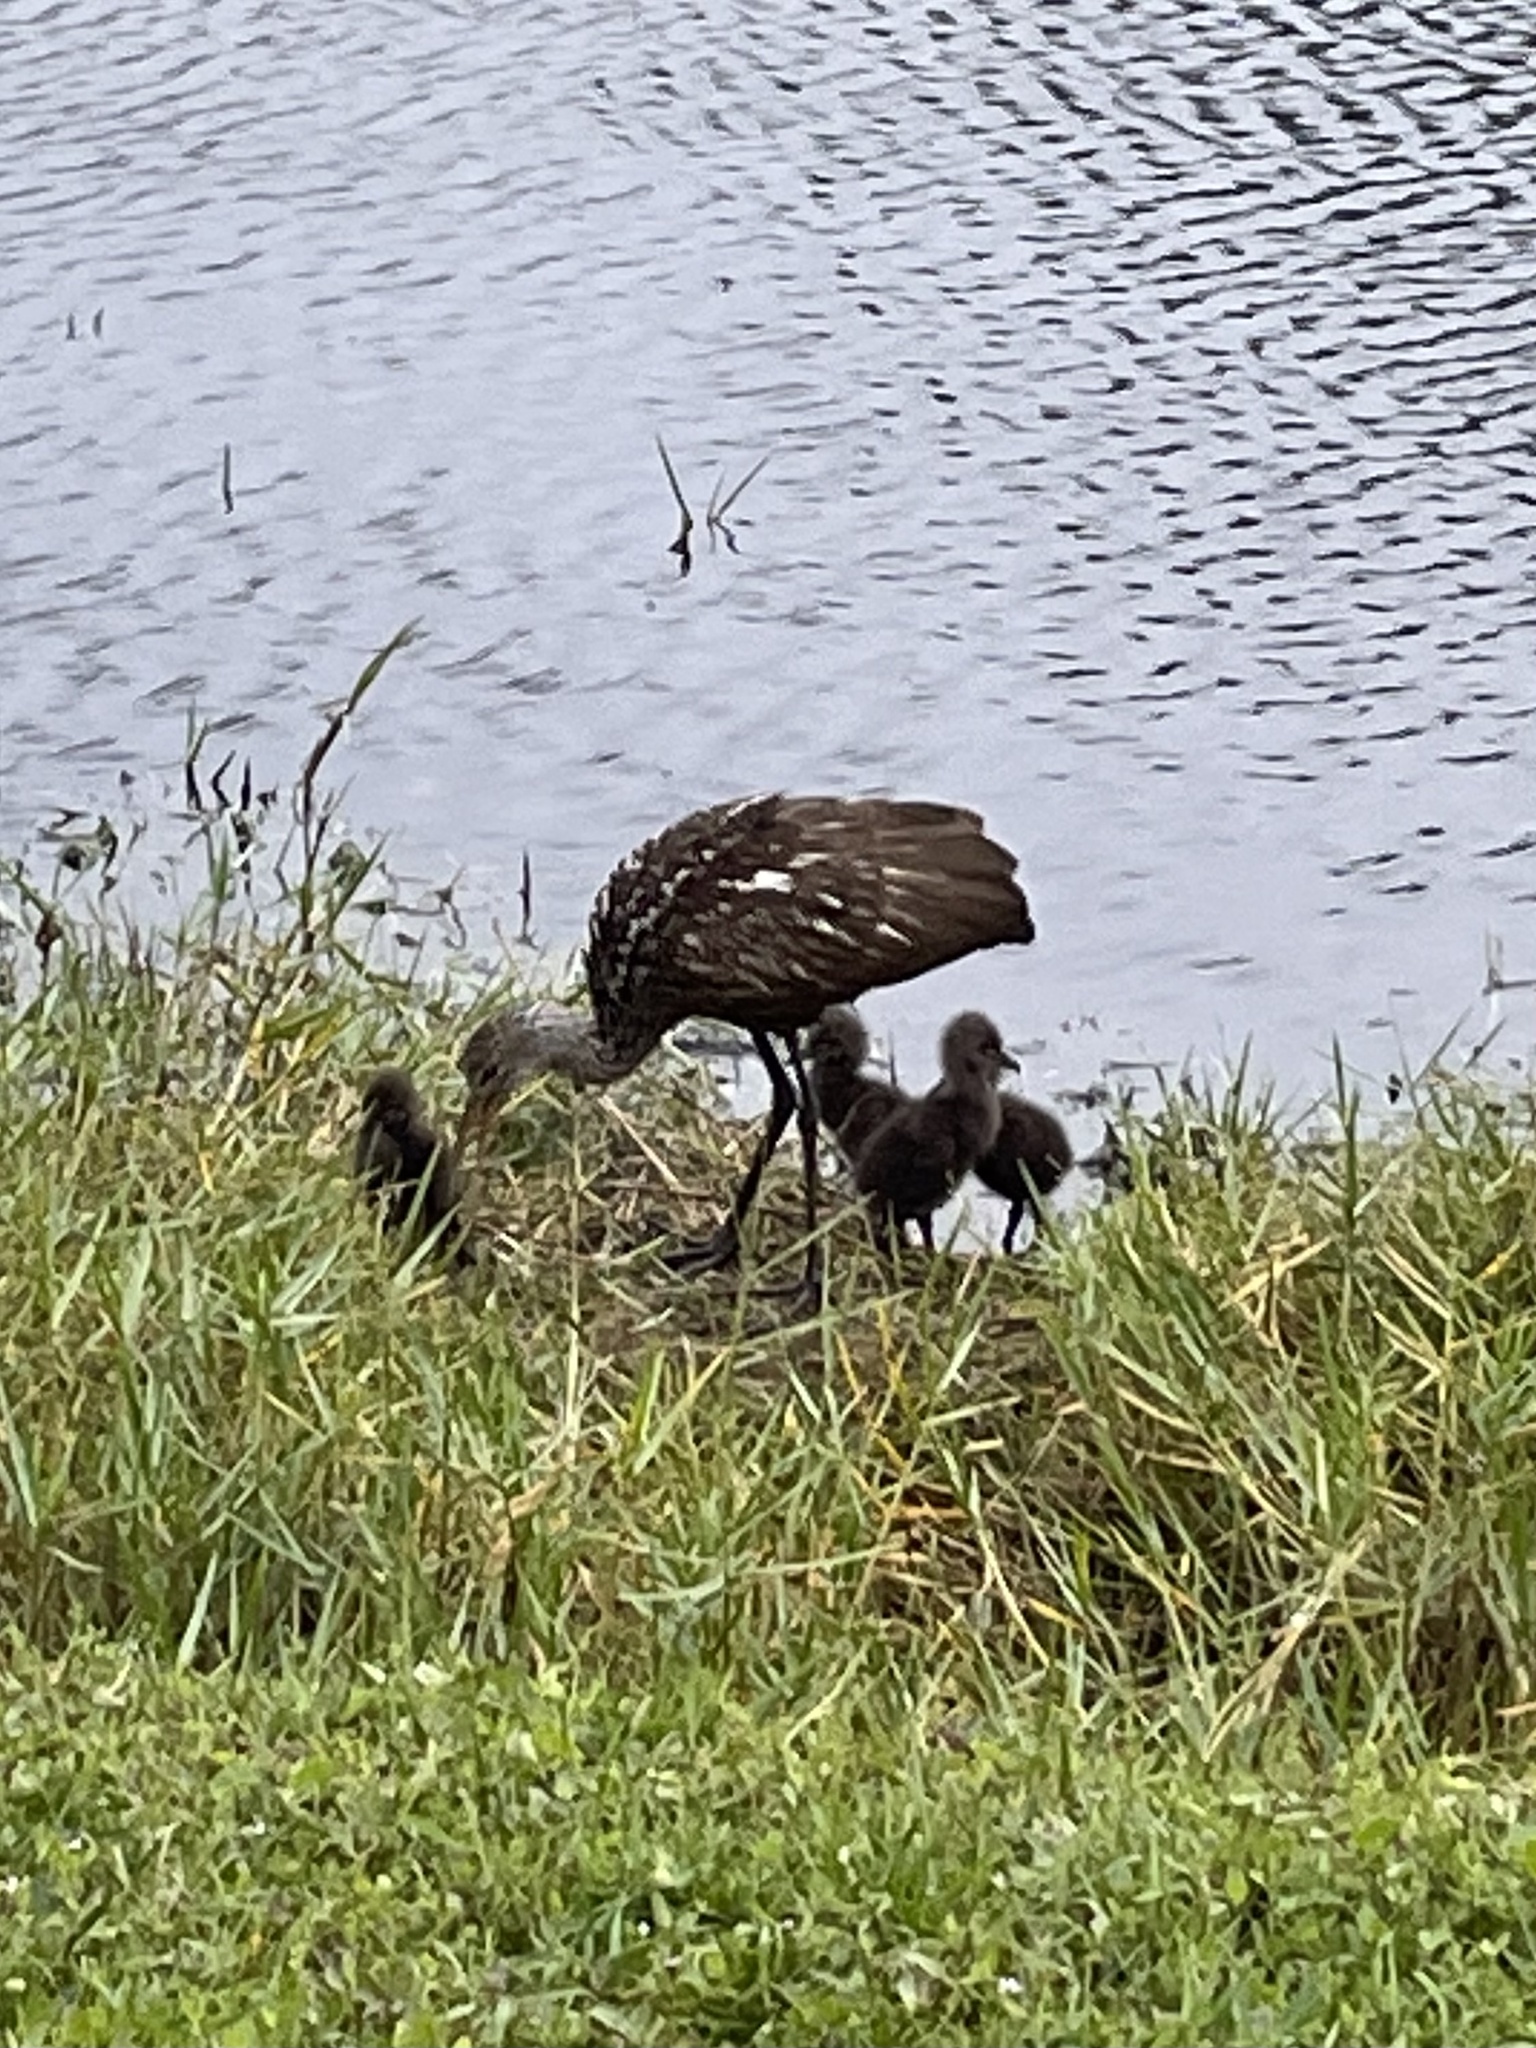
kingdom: Animalia
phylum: Chordata
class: Aves
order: Gruiformes
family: Aramidae
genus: Aramus
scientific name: Aramus guarauna
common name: Limpkin
